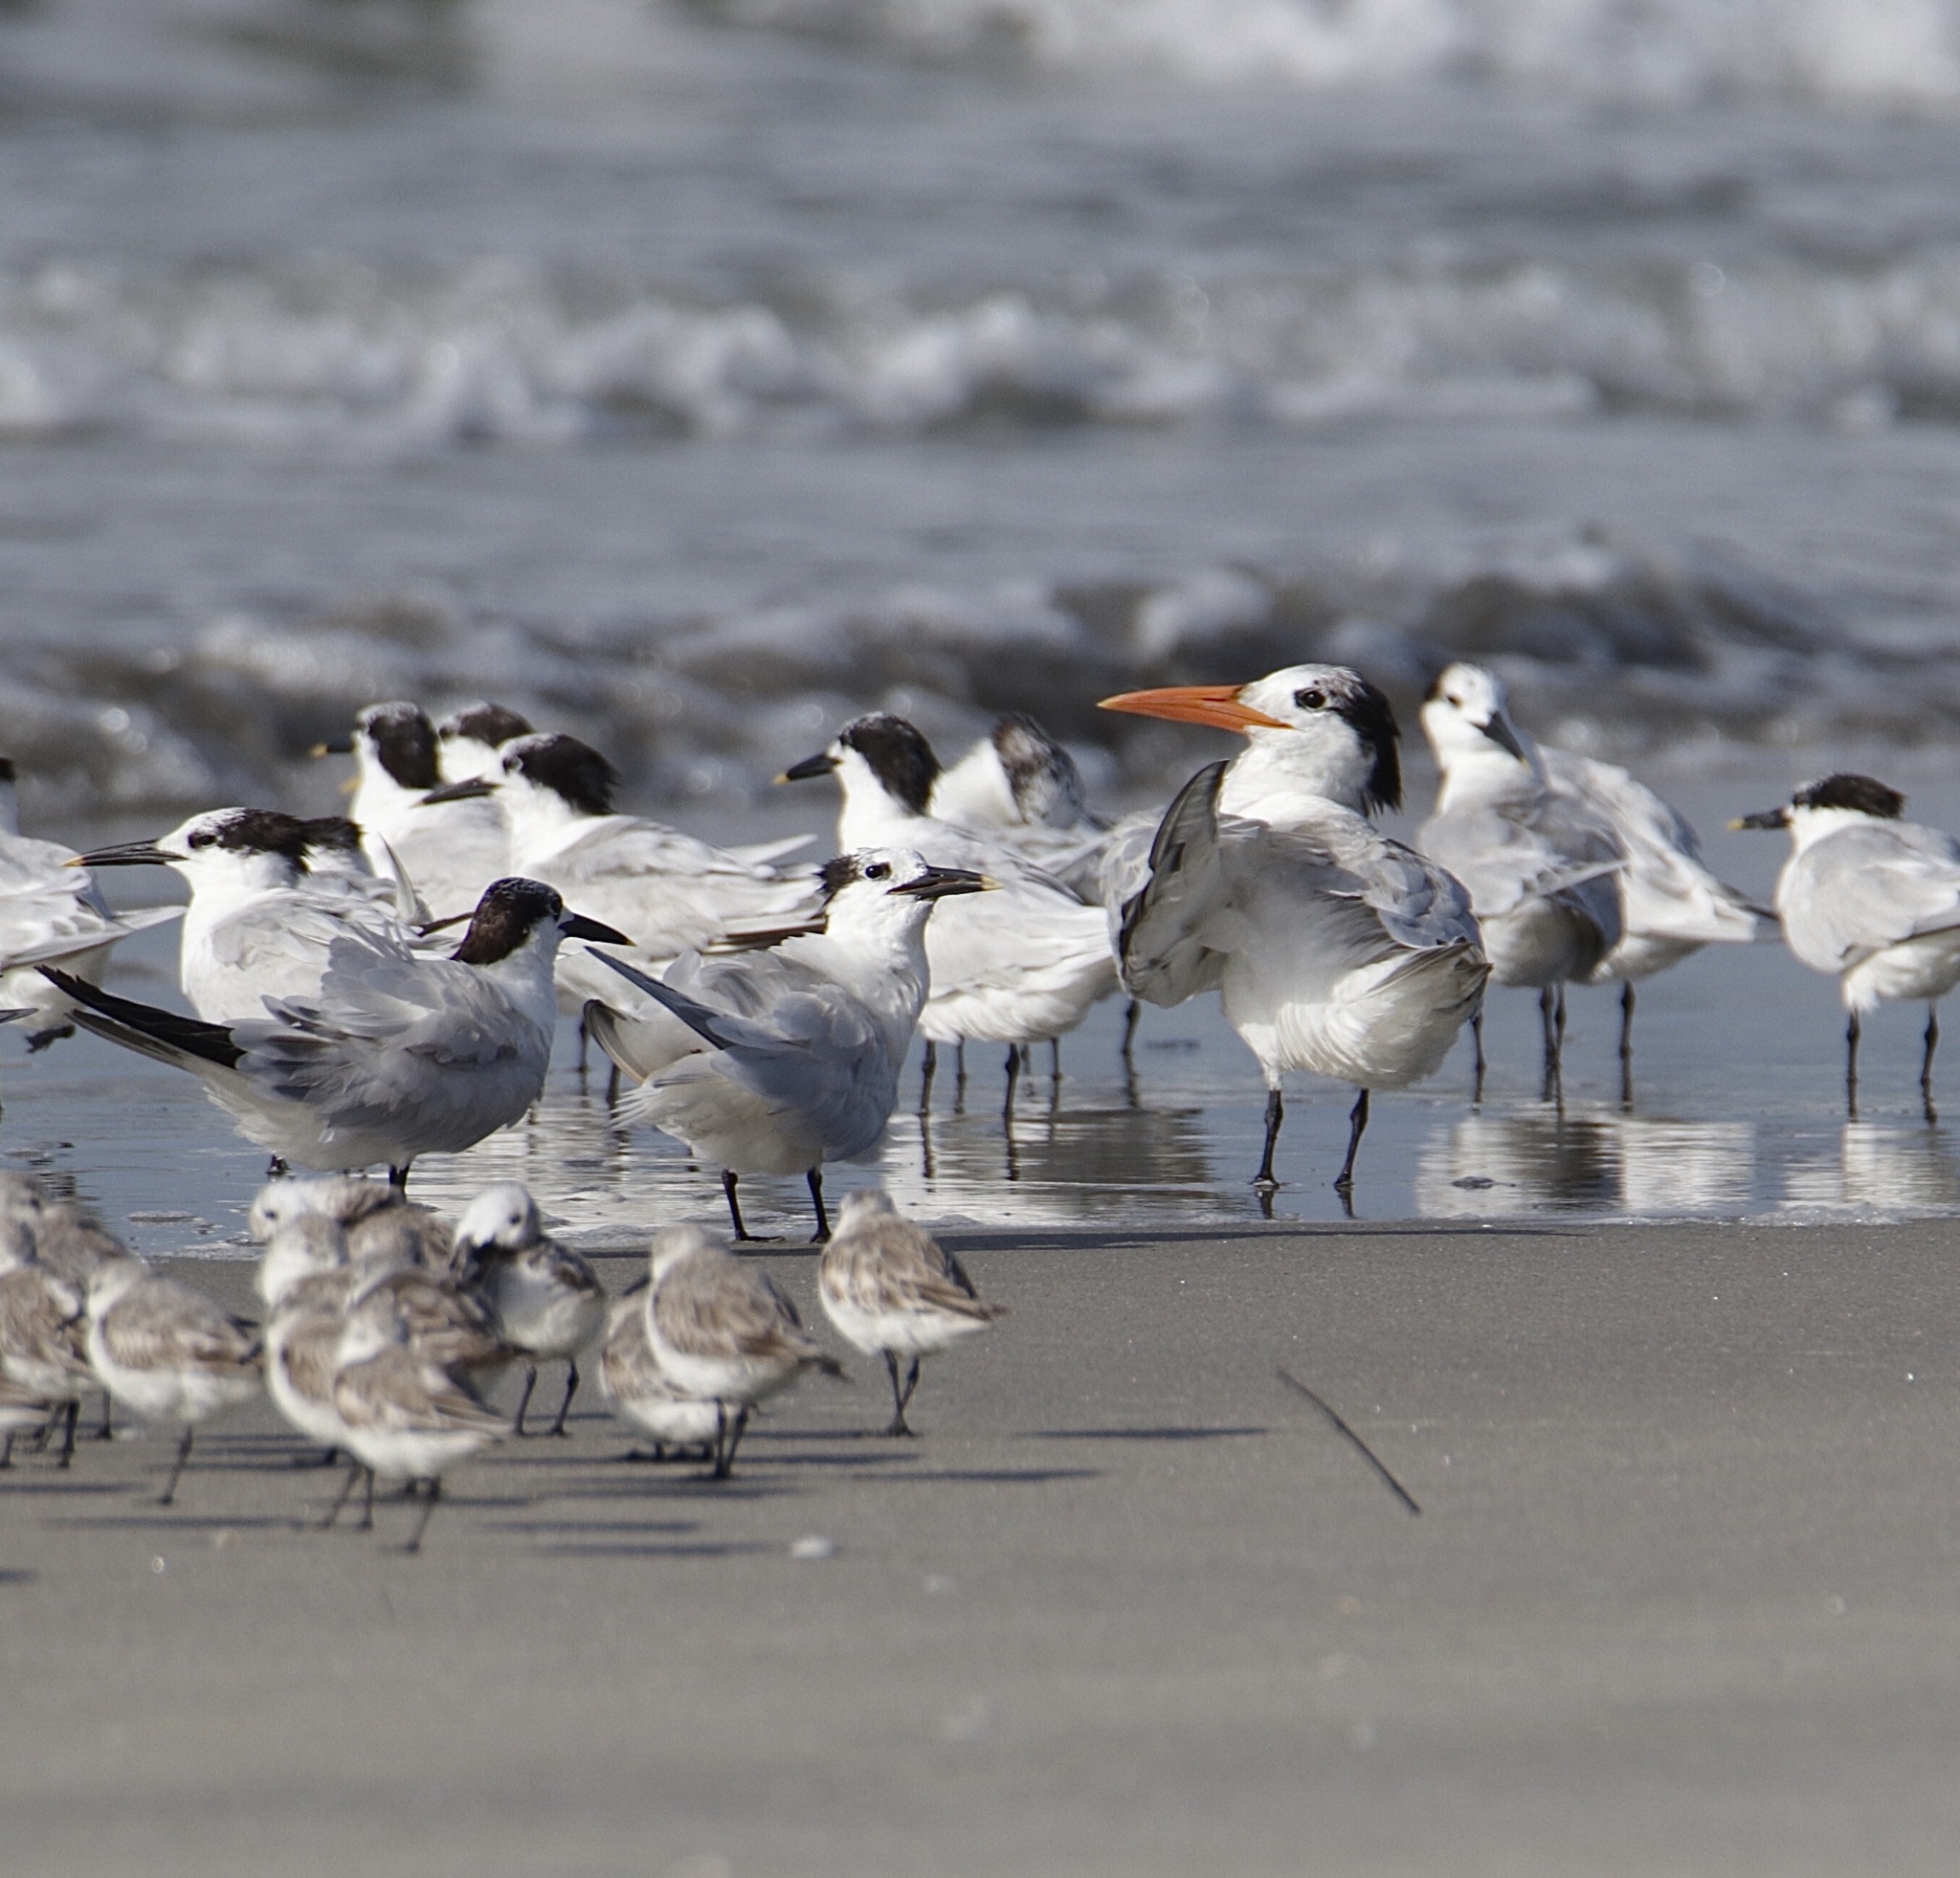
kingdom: Animalia
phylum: Chordata
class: Aves
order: Charadriiformes
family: Laridae
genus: Thalasseus
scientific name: Thalasseus maximus
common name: Royal tern
